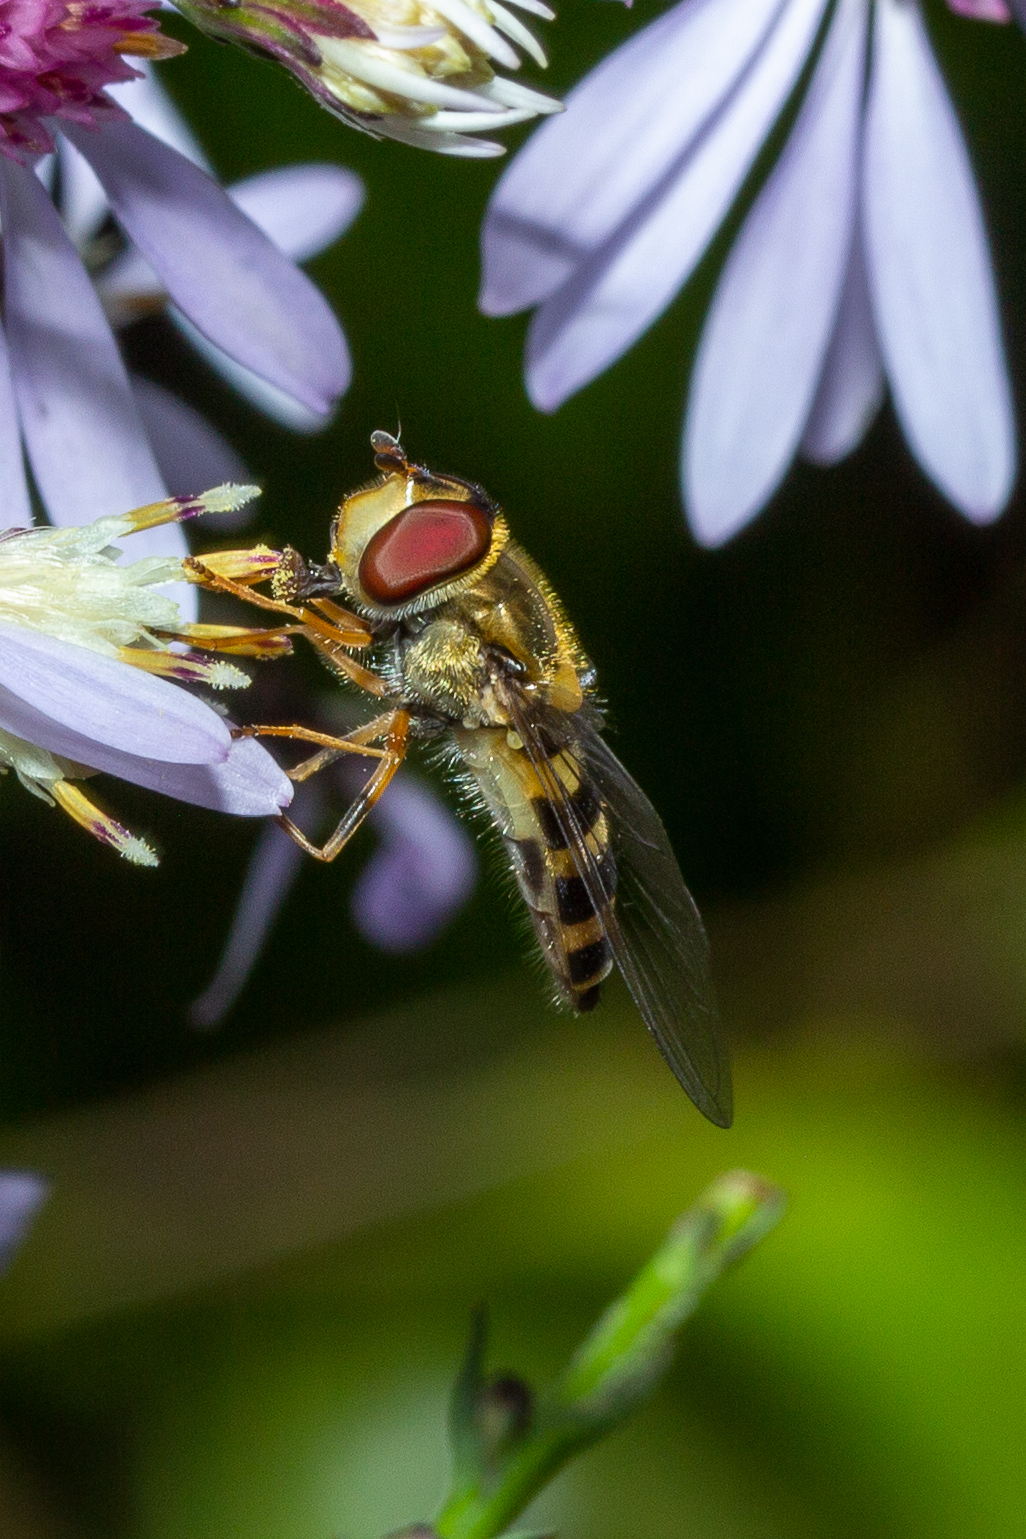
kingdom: Animalia
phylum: Arthropoda
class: Insecta
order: Diptera
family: Syrphidae
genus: Syrphus
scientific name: Syrphus rectus
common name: Yellow-legged flower fly
